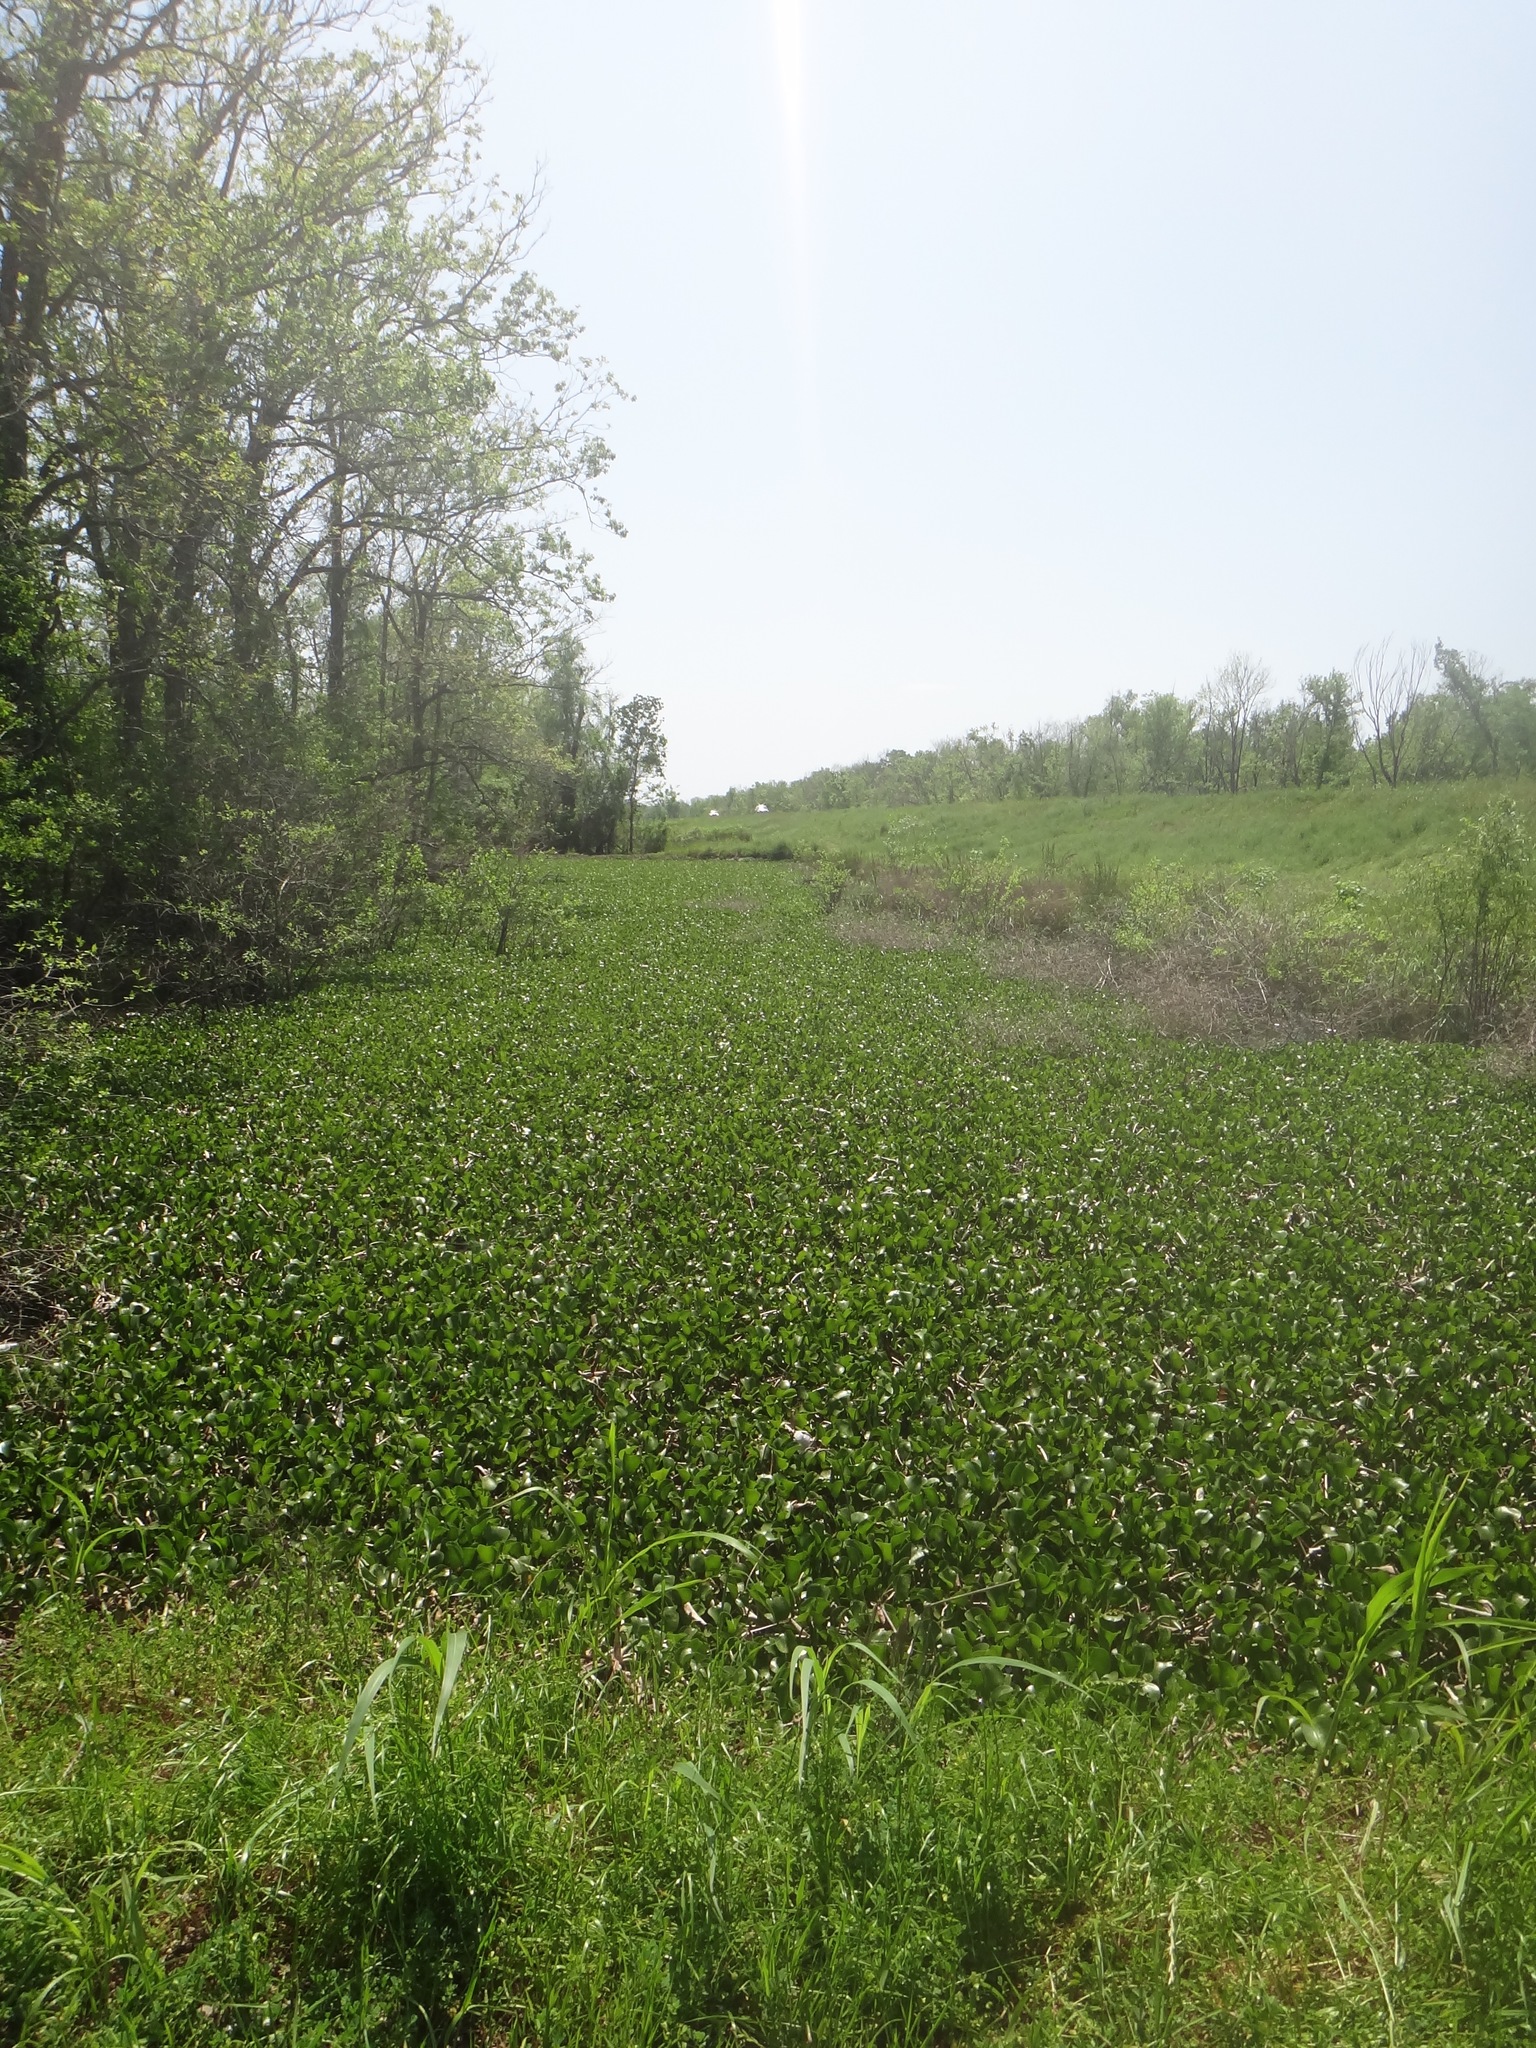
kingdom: Plantae
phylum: Tracheophyta
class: Liliopsida
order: Commelinales
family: Pontederiaceae
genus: Pontederia
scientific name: Pontederia crassipes
